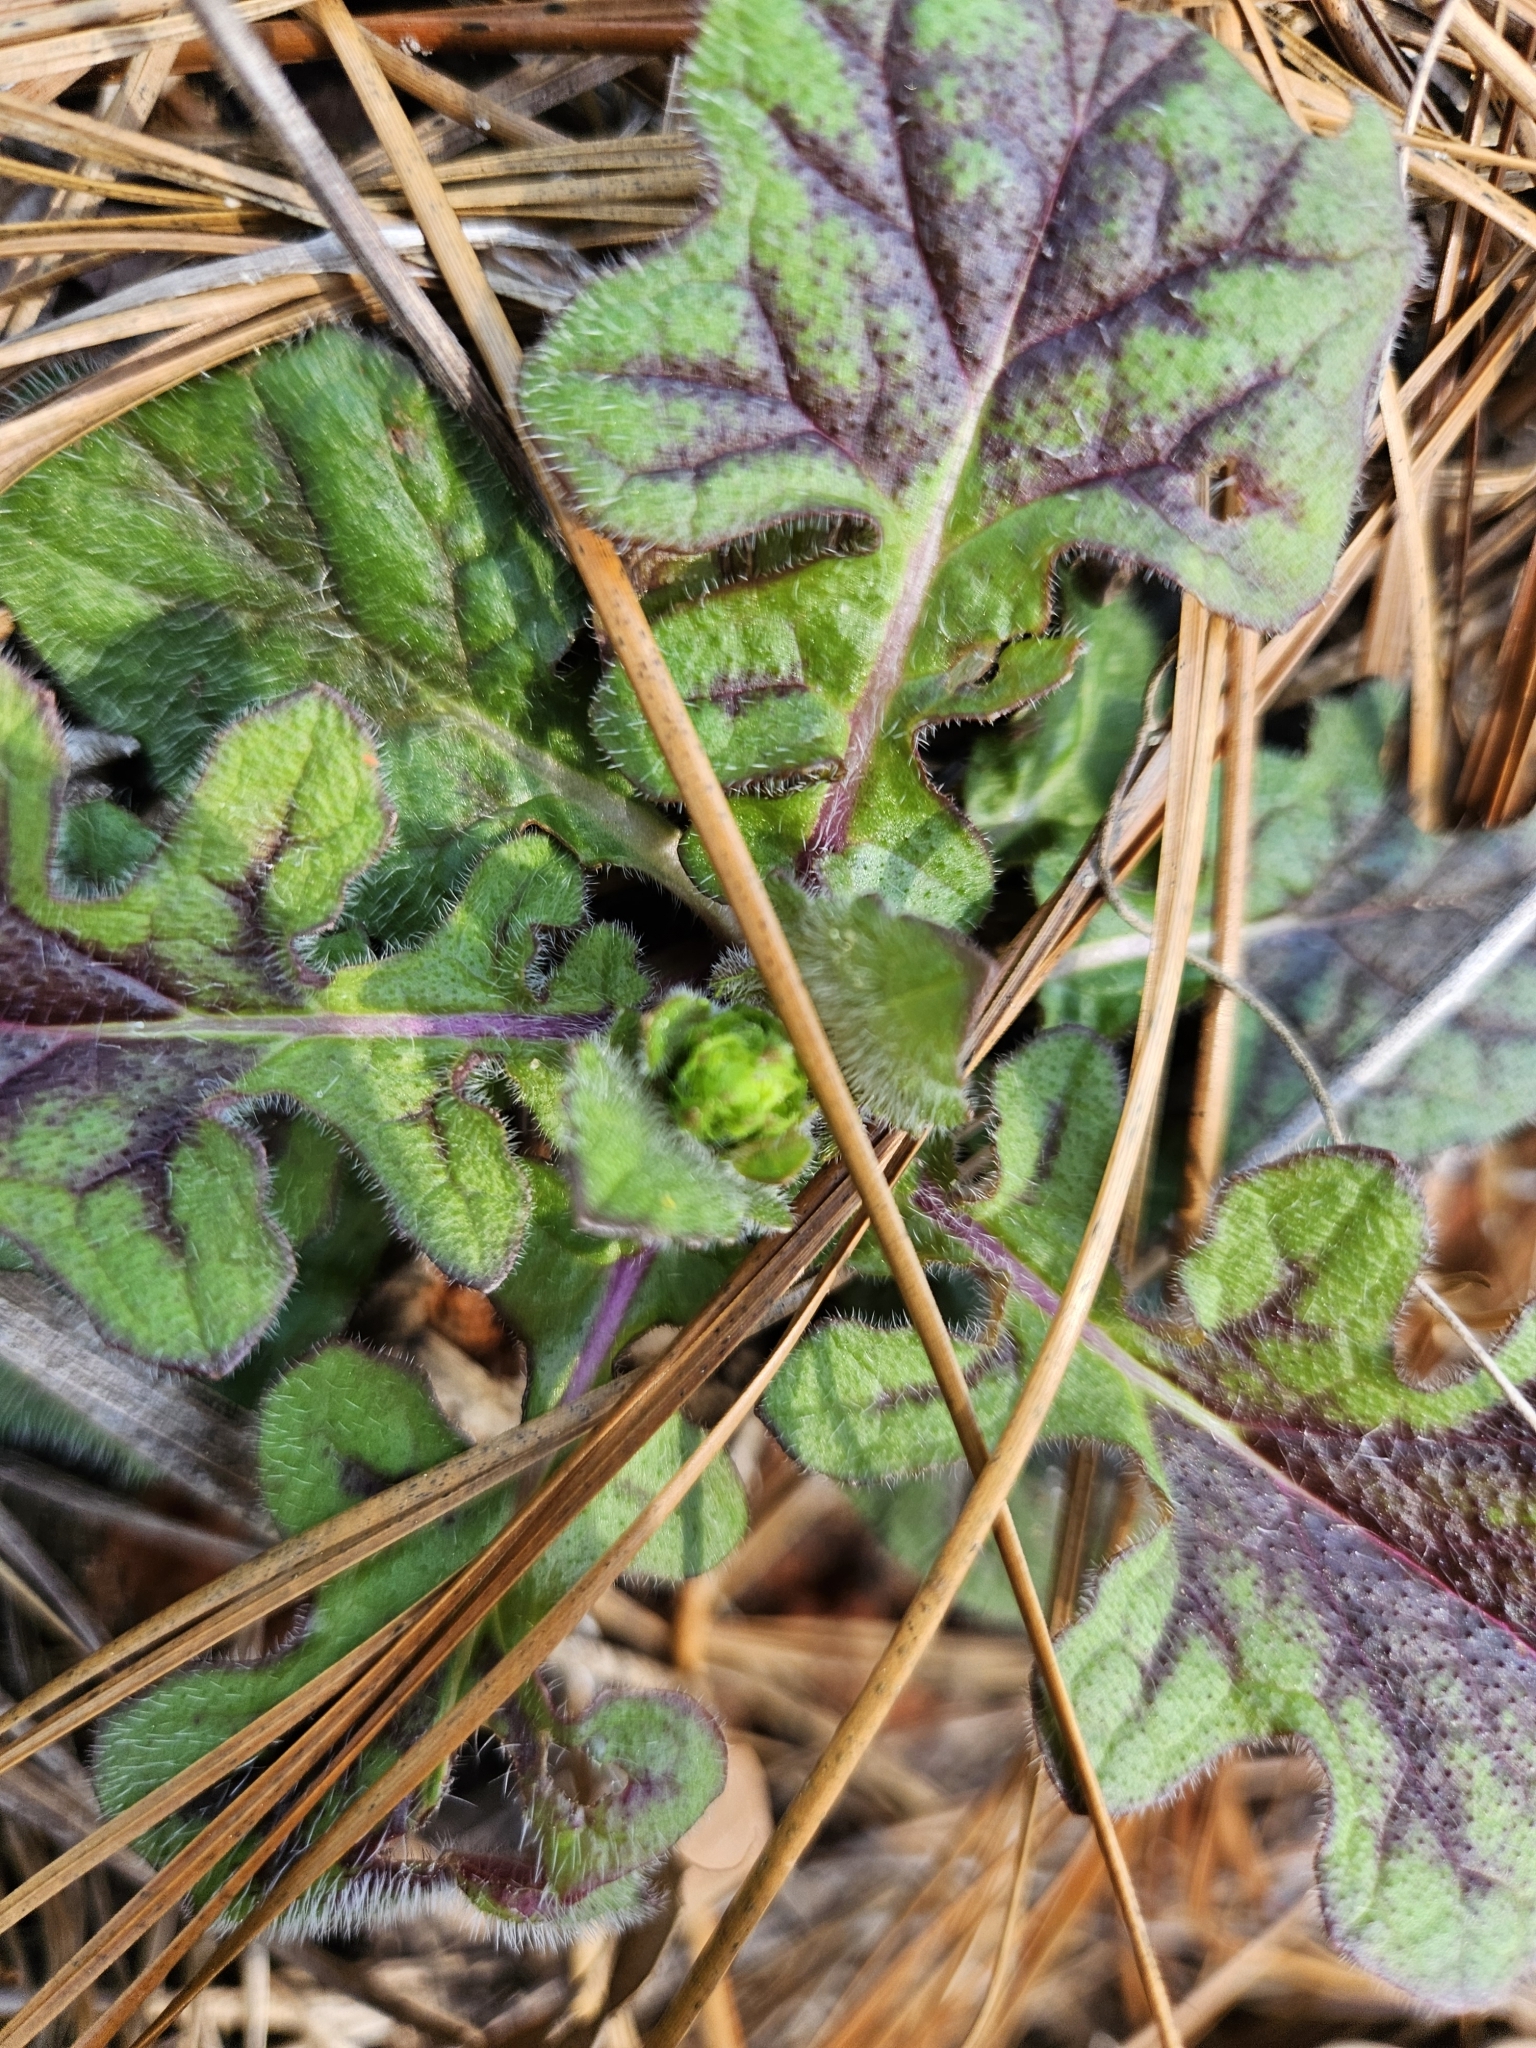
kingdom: Plantae
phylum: Tracheophyta
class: Magnoliopsida
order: Lamiales
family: Lamiaceae
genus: Salvia
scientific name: Salvia lyrata
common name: Cancerweed
